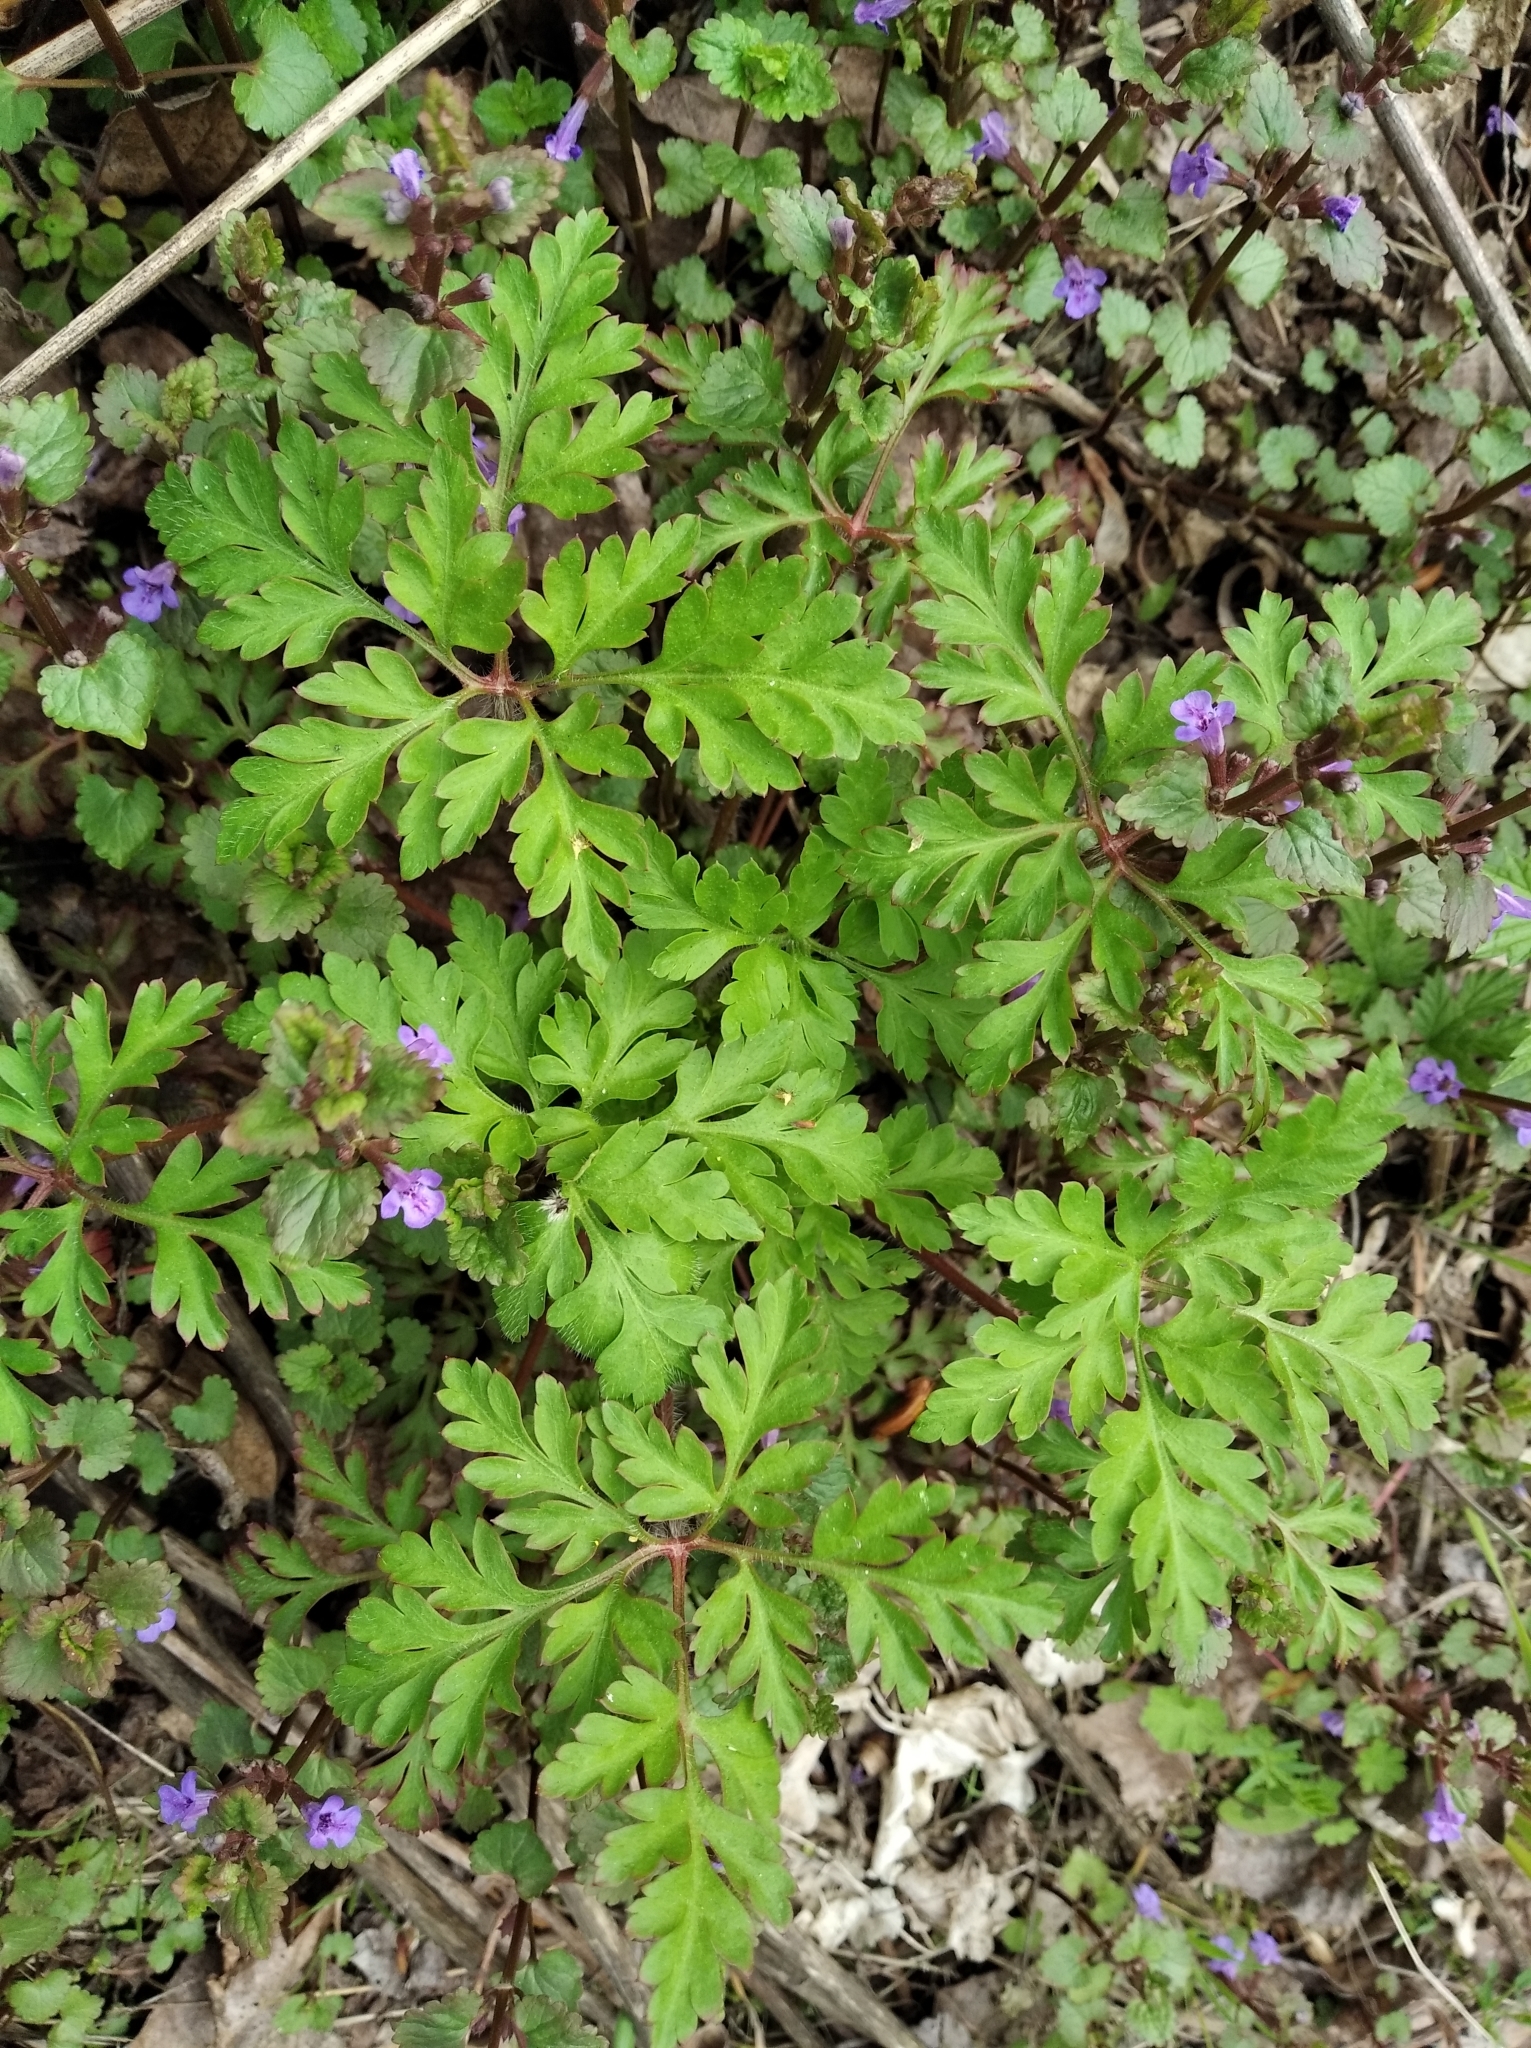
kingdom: Plantae
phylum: Tracheophyta
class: Magnoliopsida
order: Lamiales
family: Lamiaceae
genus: Glechoma
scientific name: Glechoma hederacea
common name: Ground ivy
